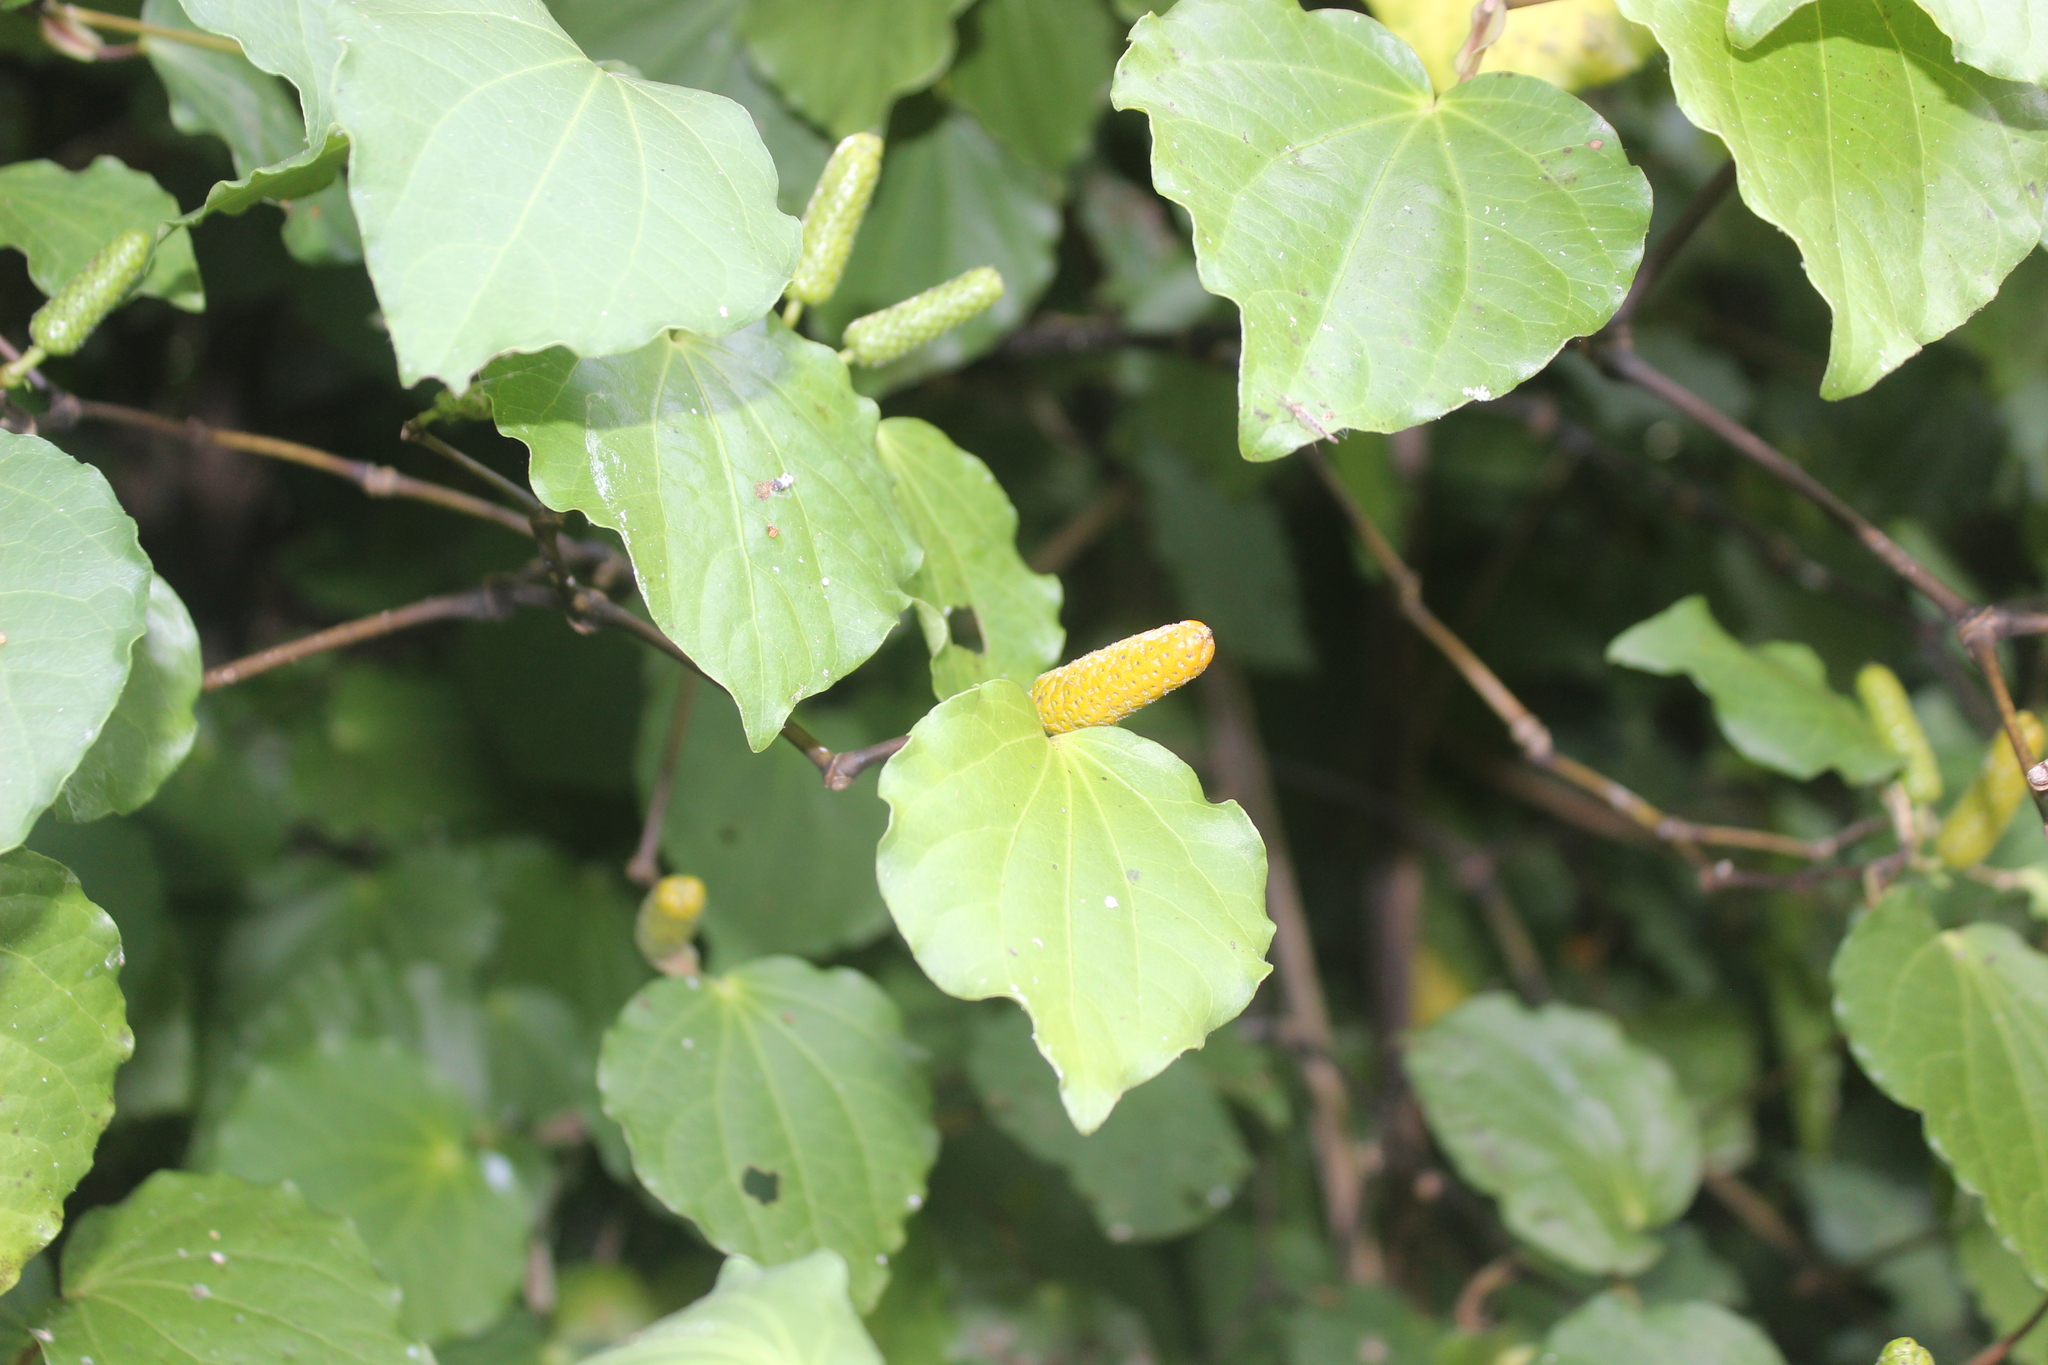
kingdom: Plantae
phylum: Tracheophyta
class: Magnoliopsida
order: Piperales
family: Piperaceae
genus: Macropiper
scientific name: Macropiper excelsum
